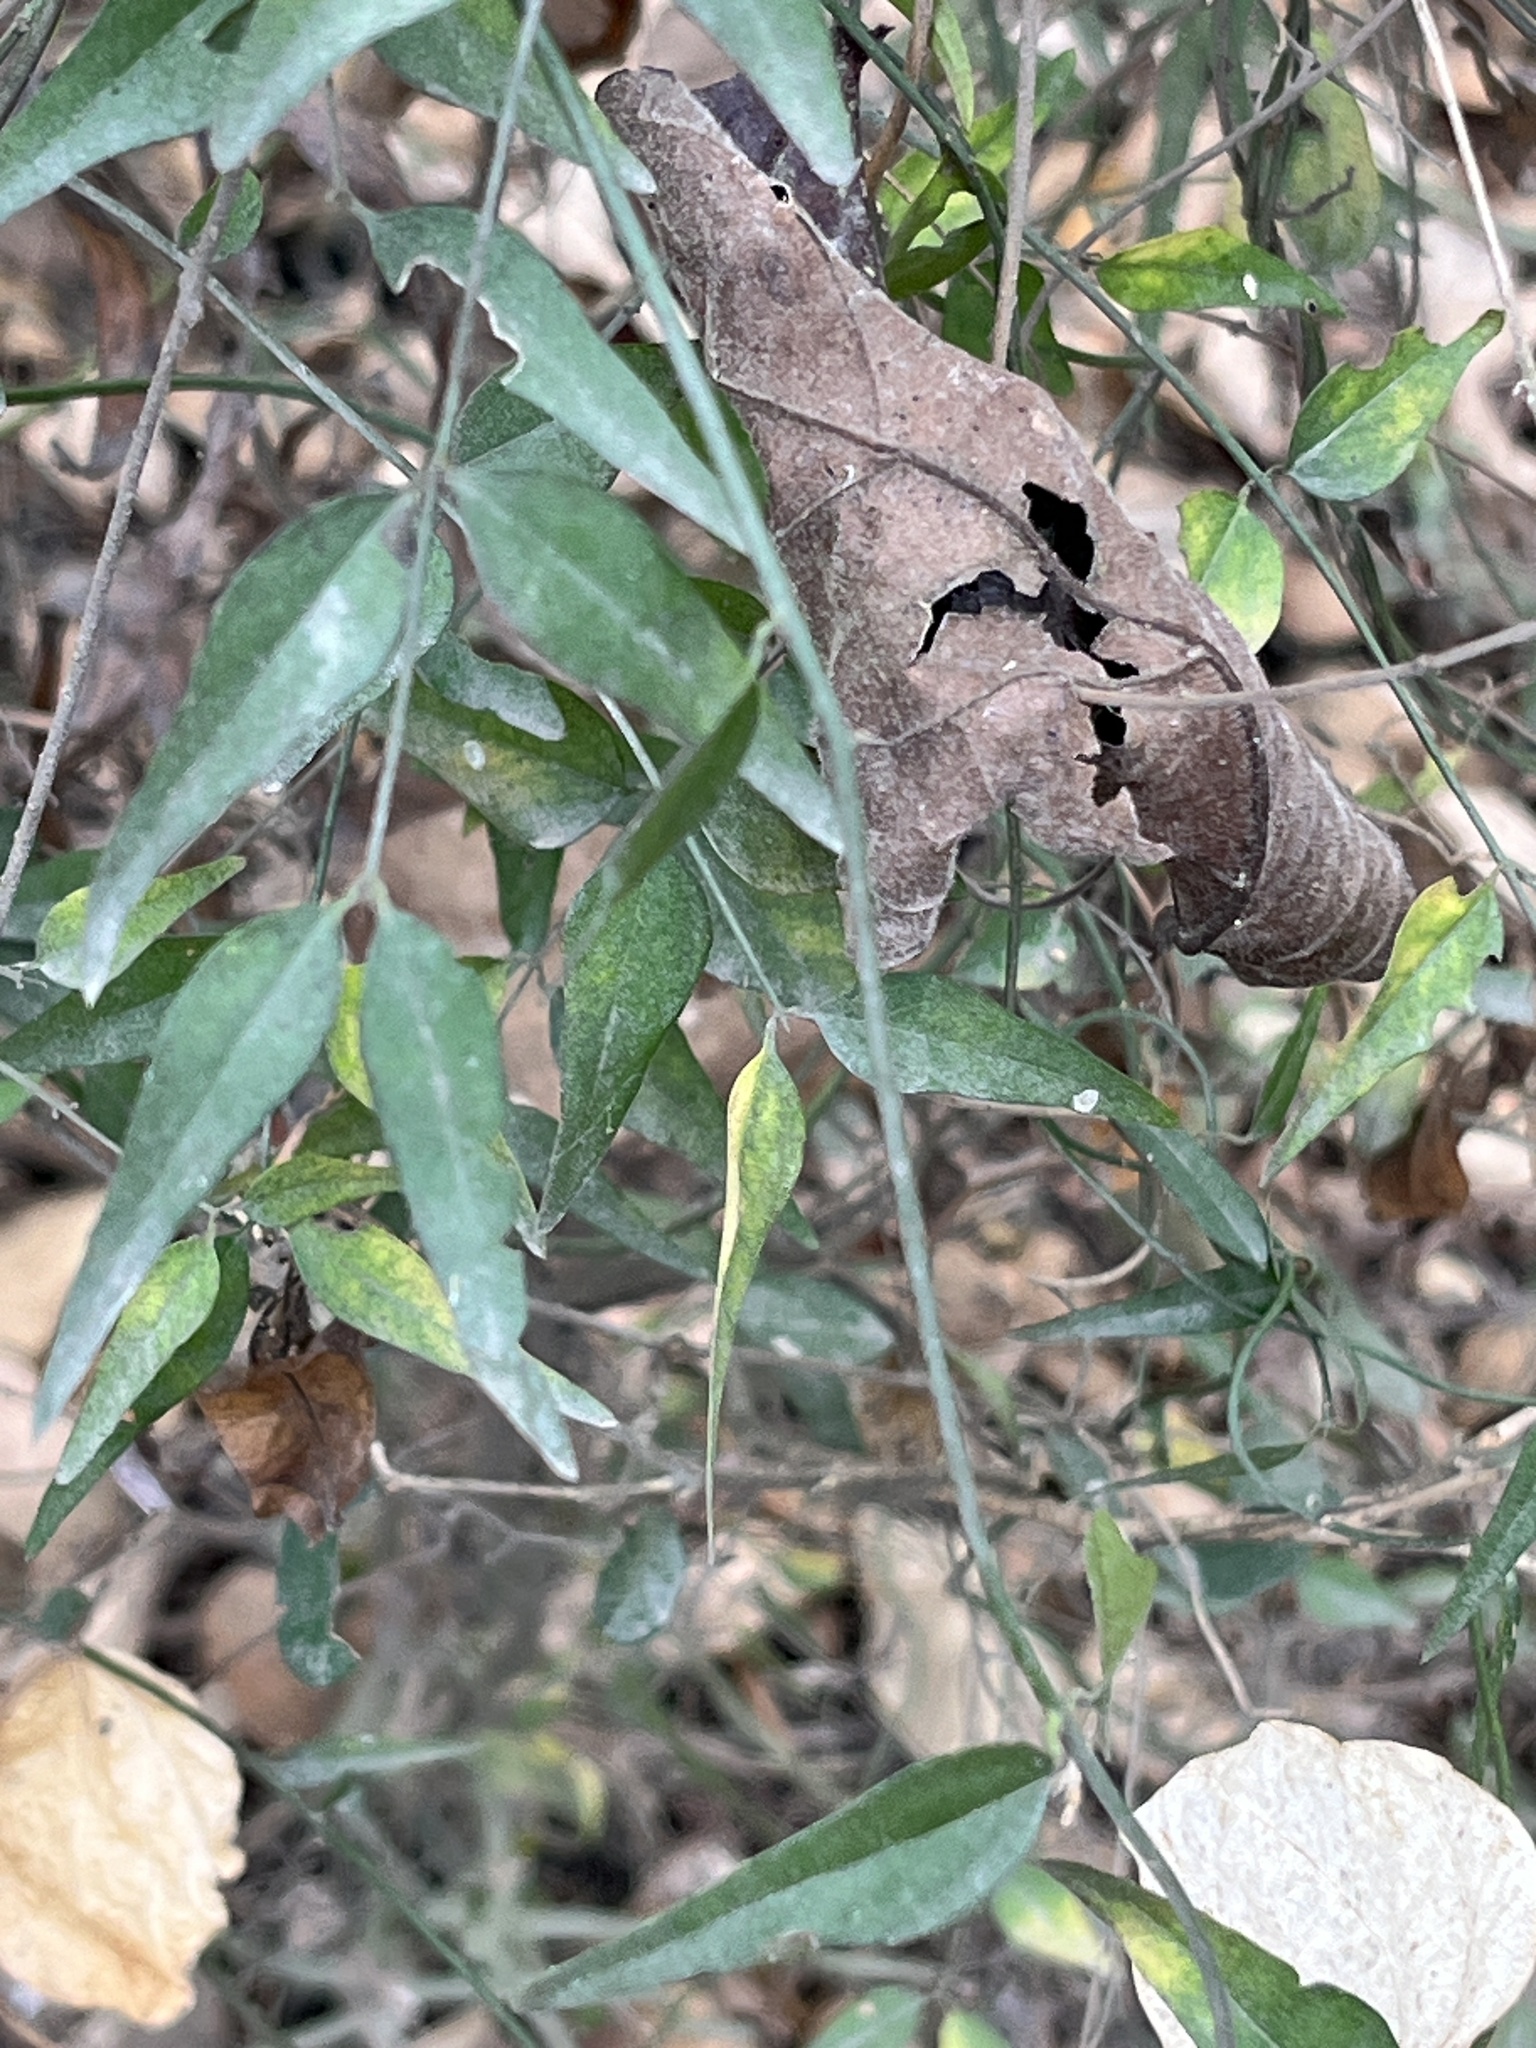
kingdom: Plantae
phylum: Tracheophyta
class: Magnoliopsida
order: Lamiales
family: Oleaceae
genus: Jasminum
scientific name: Jasminum nervosum
